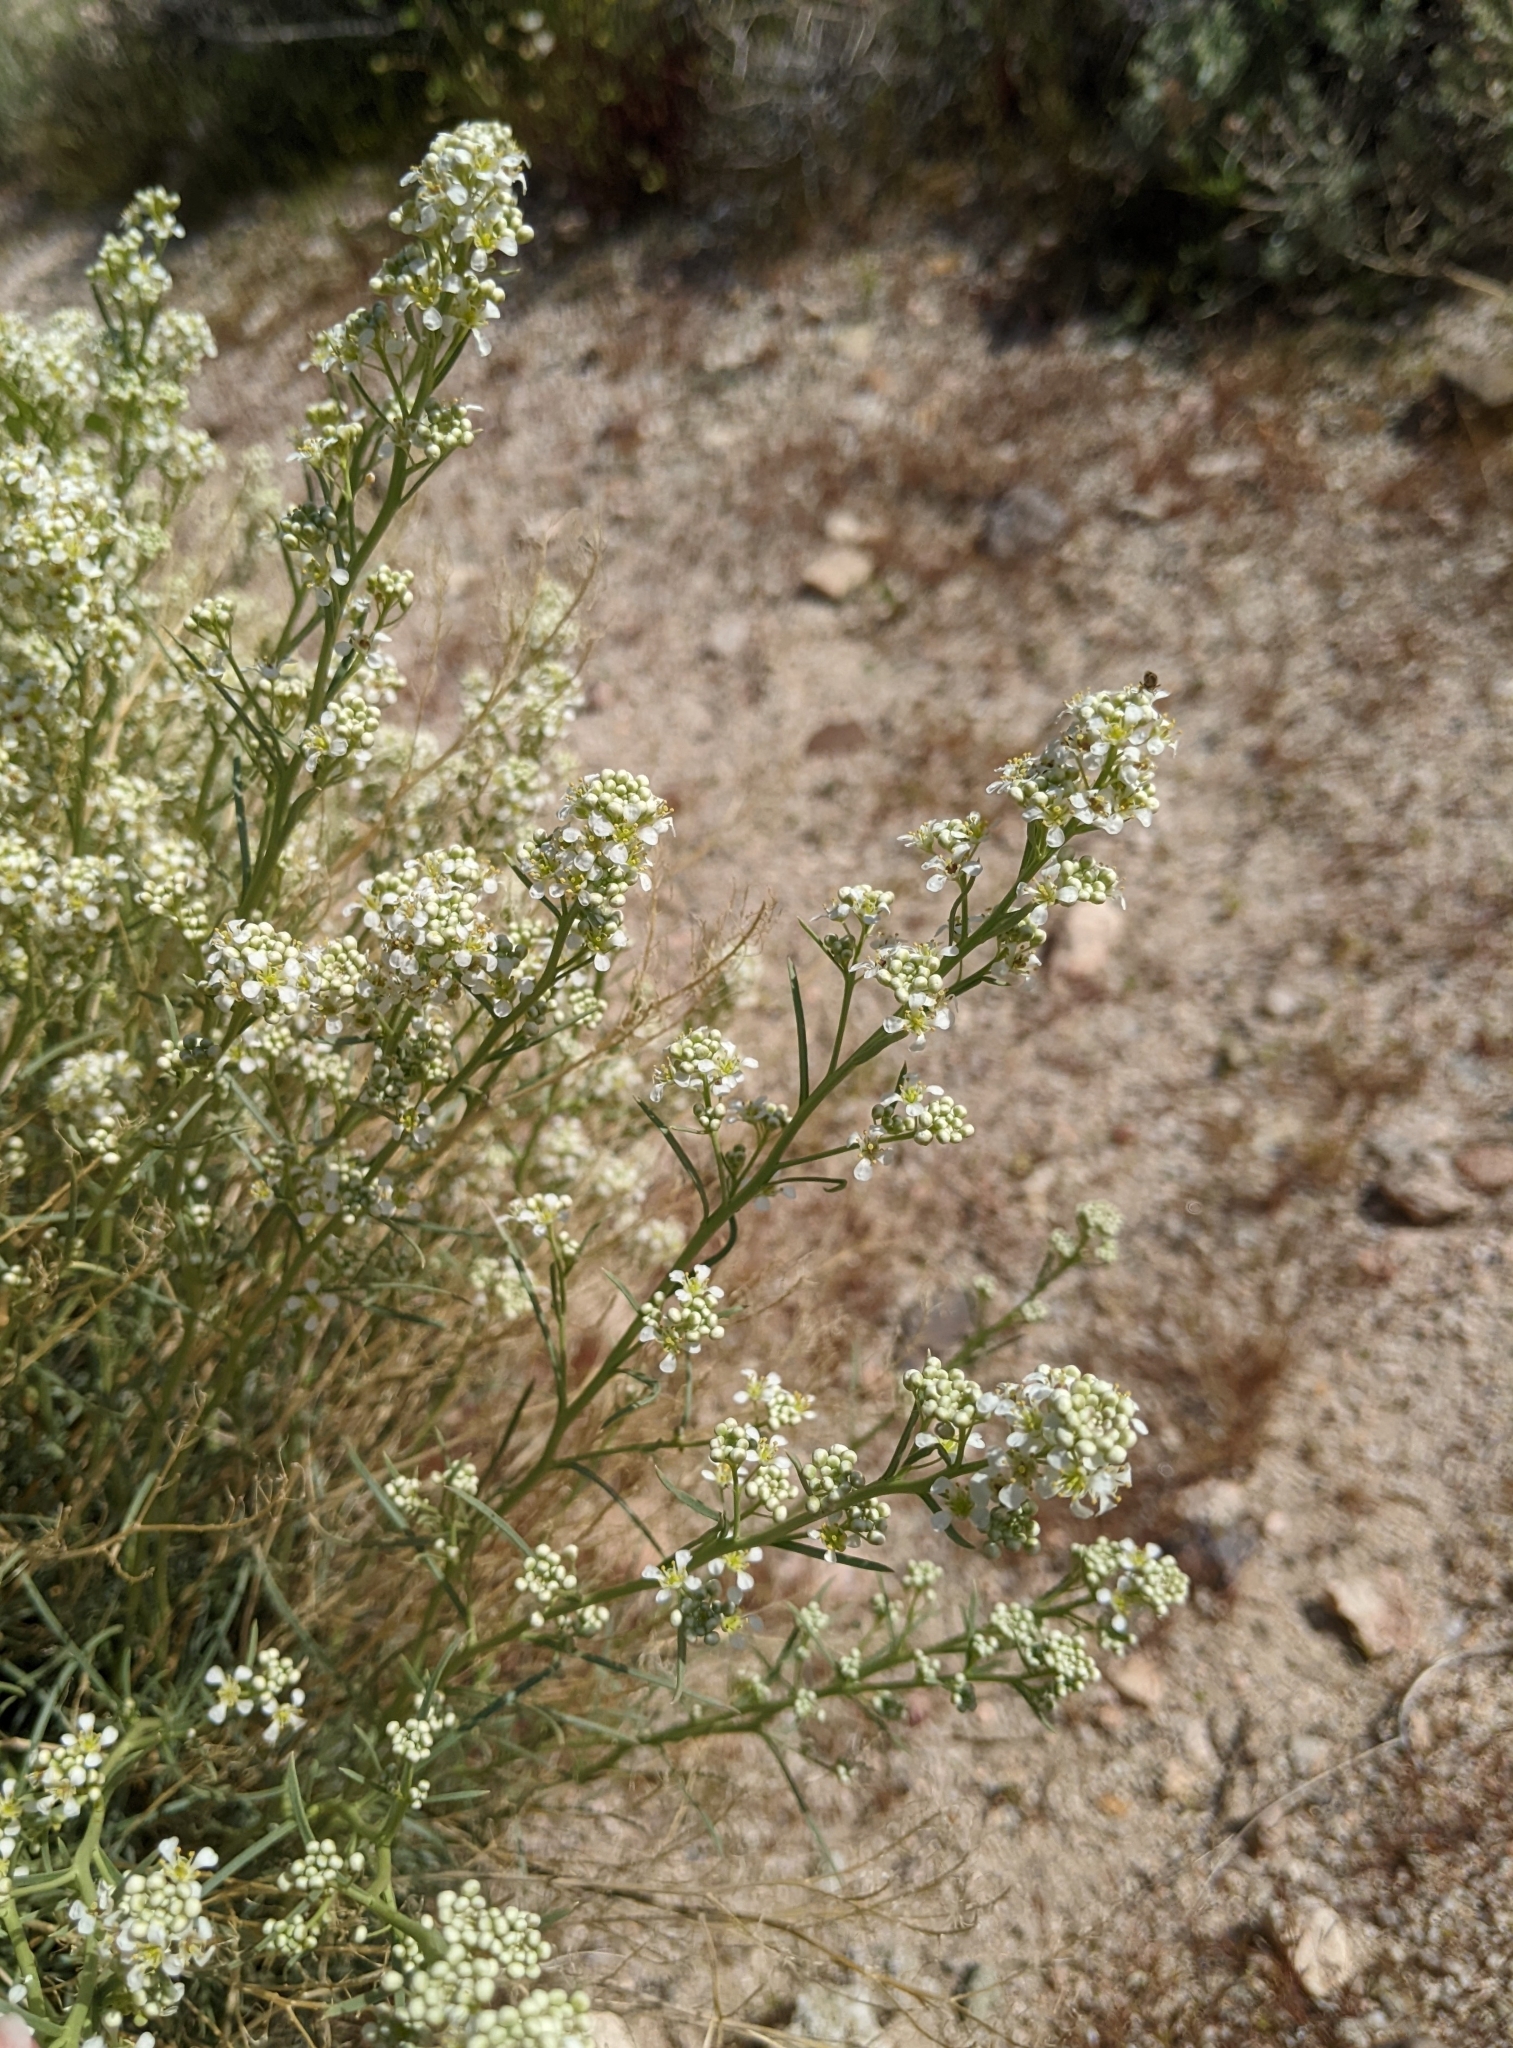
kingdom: Plantae
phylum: Tracheophyta
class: Magnoliopsida
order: Brassicales
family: Brassicaceae
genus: Lepidium
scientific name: Lepidium fremontii
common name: Fremont's pepperwort
